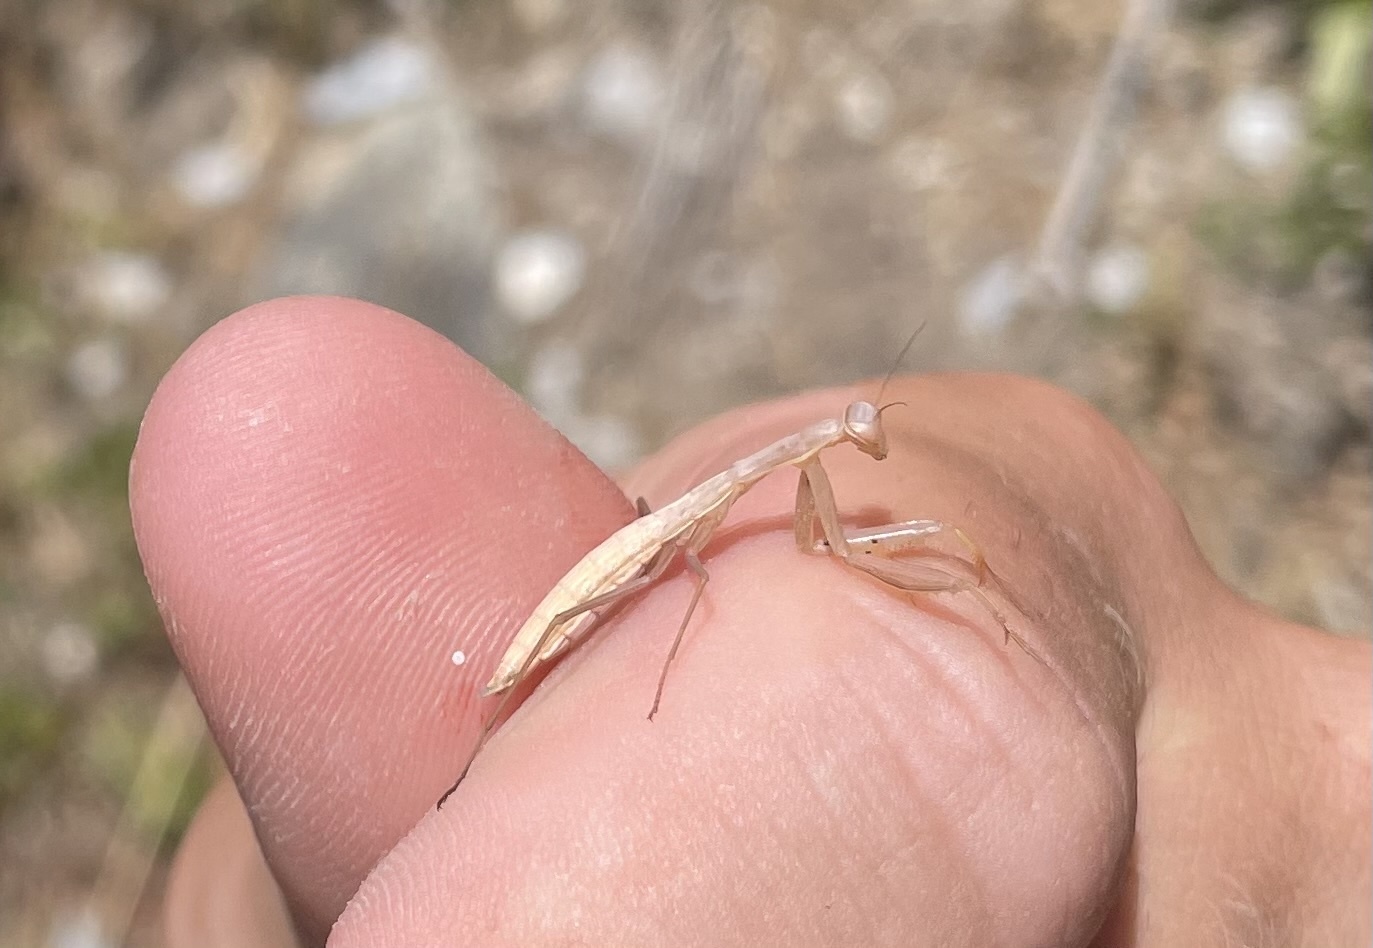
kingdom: Animalia
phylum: Arthropoda
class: Insecta
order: Mantodea
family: Mantidae
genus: Mantis
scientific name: Mantis religiosa
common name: Praying mantis
